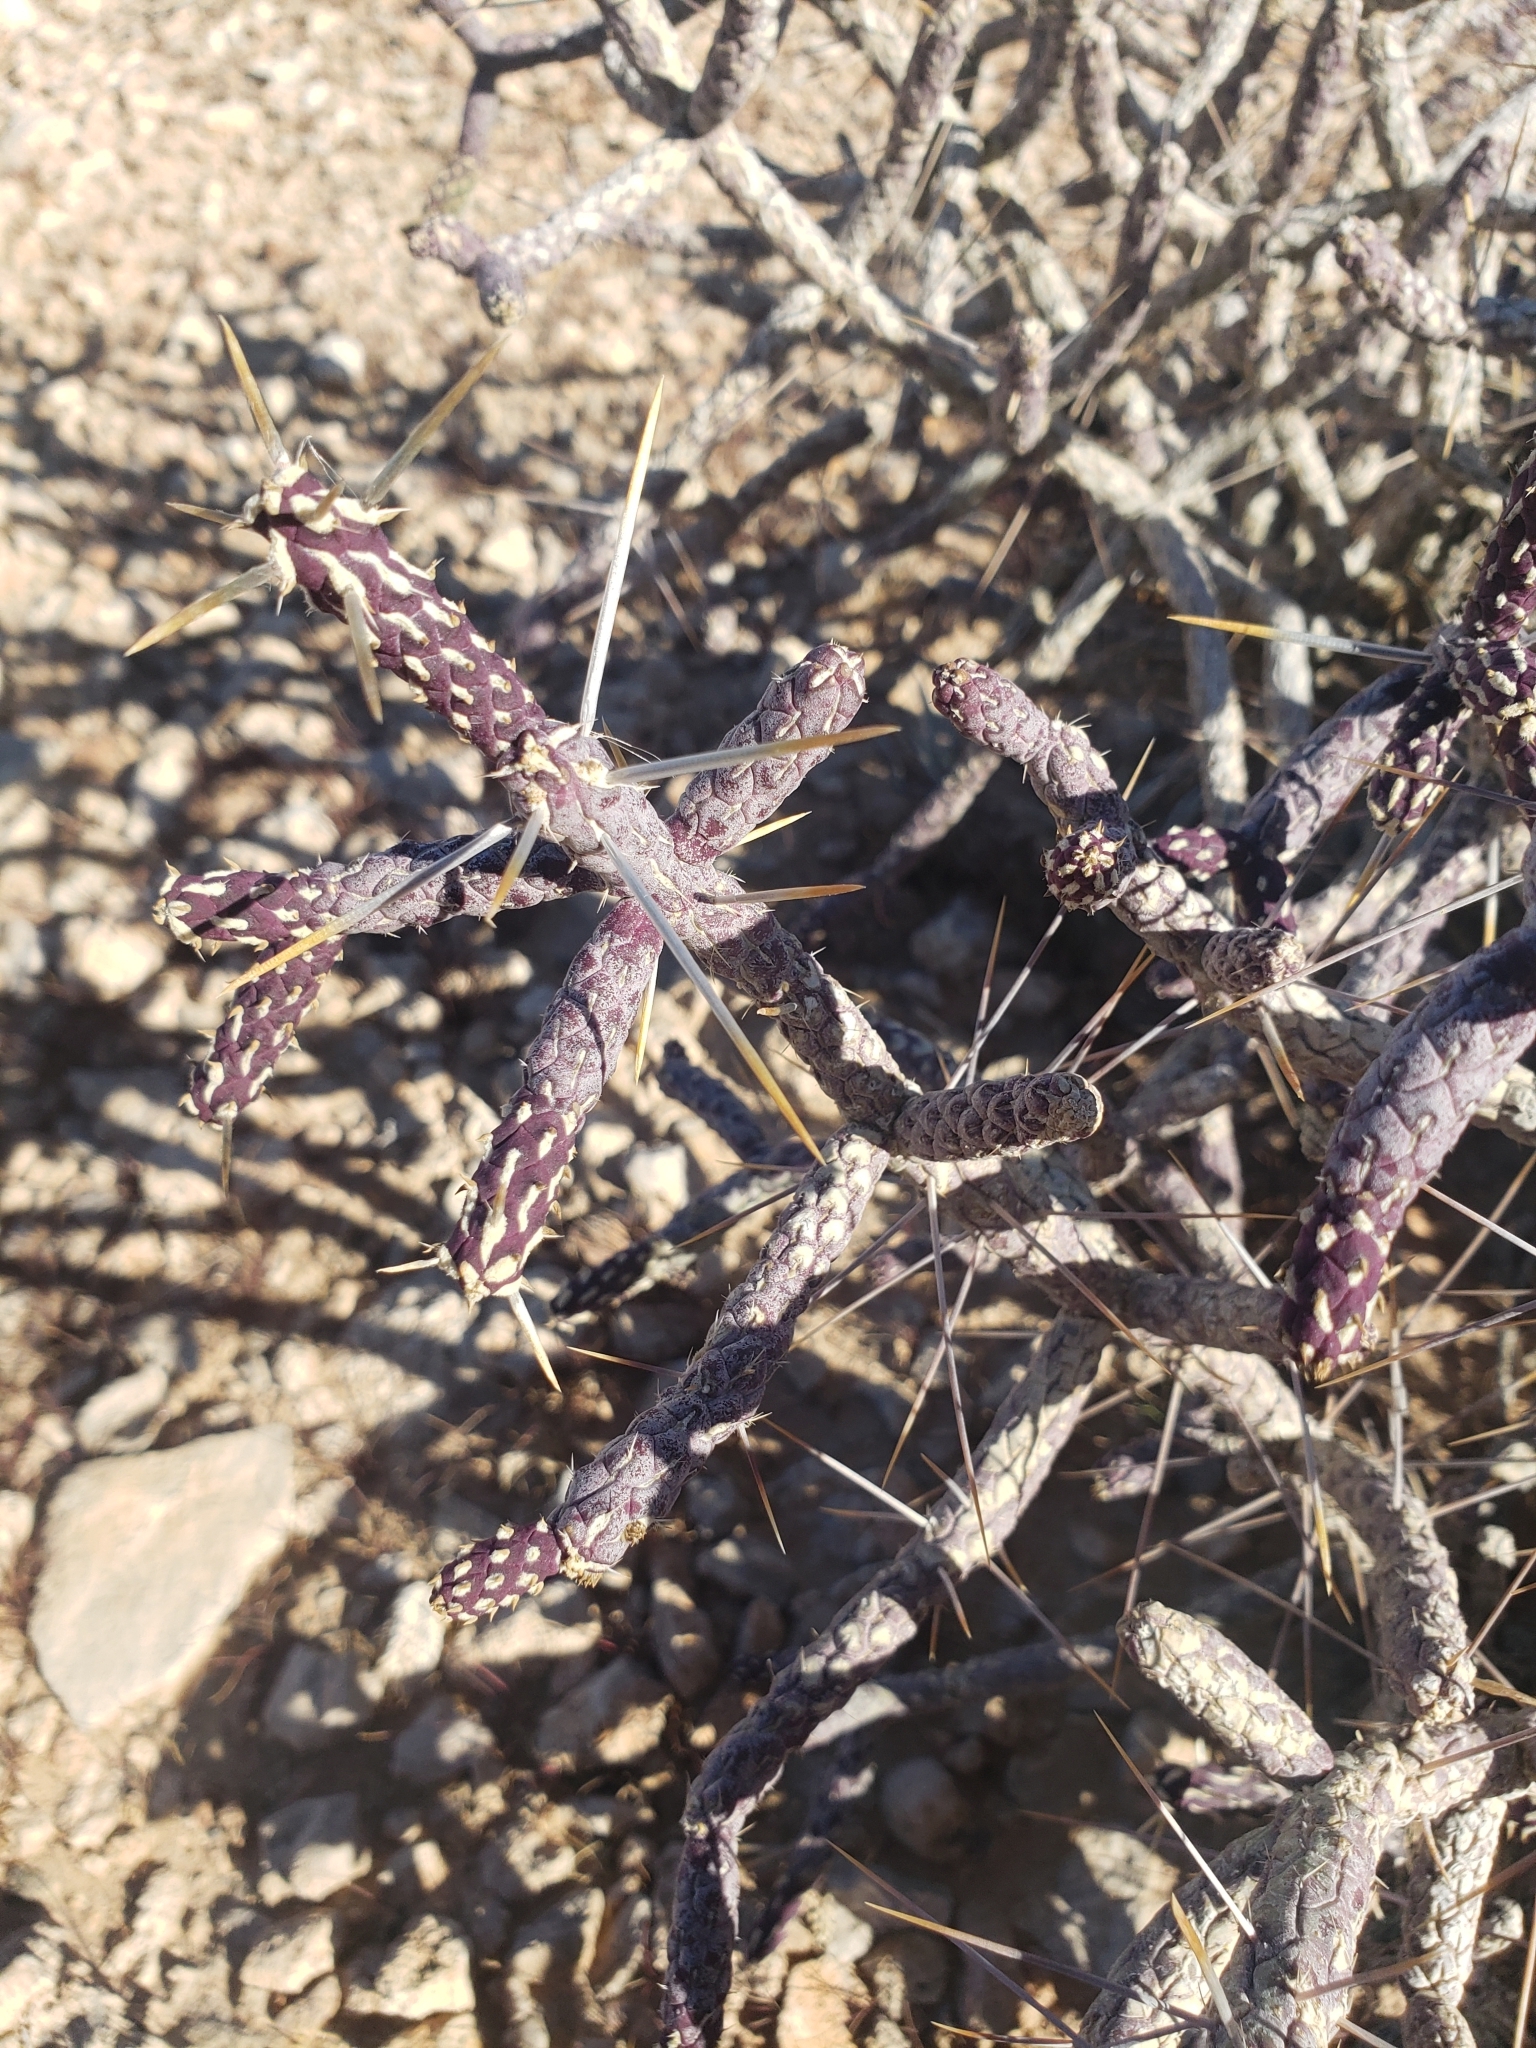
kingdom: Plantae
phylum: Tracheophyta
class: Magnoliopsida
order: Caryophyllales
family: Cactaceae
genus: Cylindropuntia
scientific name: Cylindropuntia ramosissima
